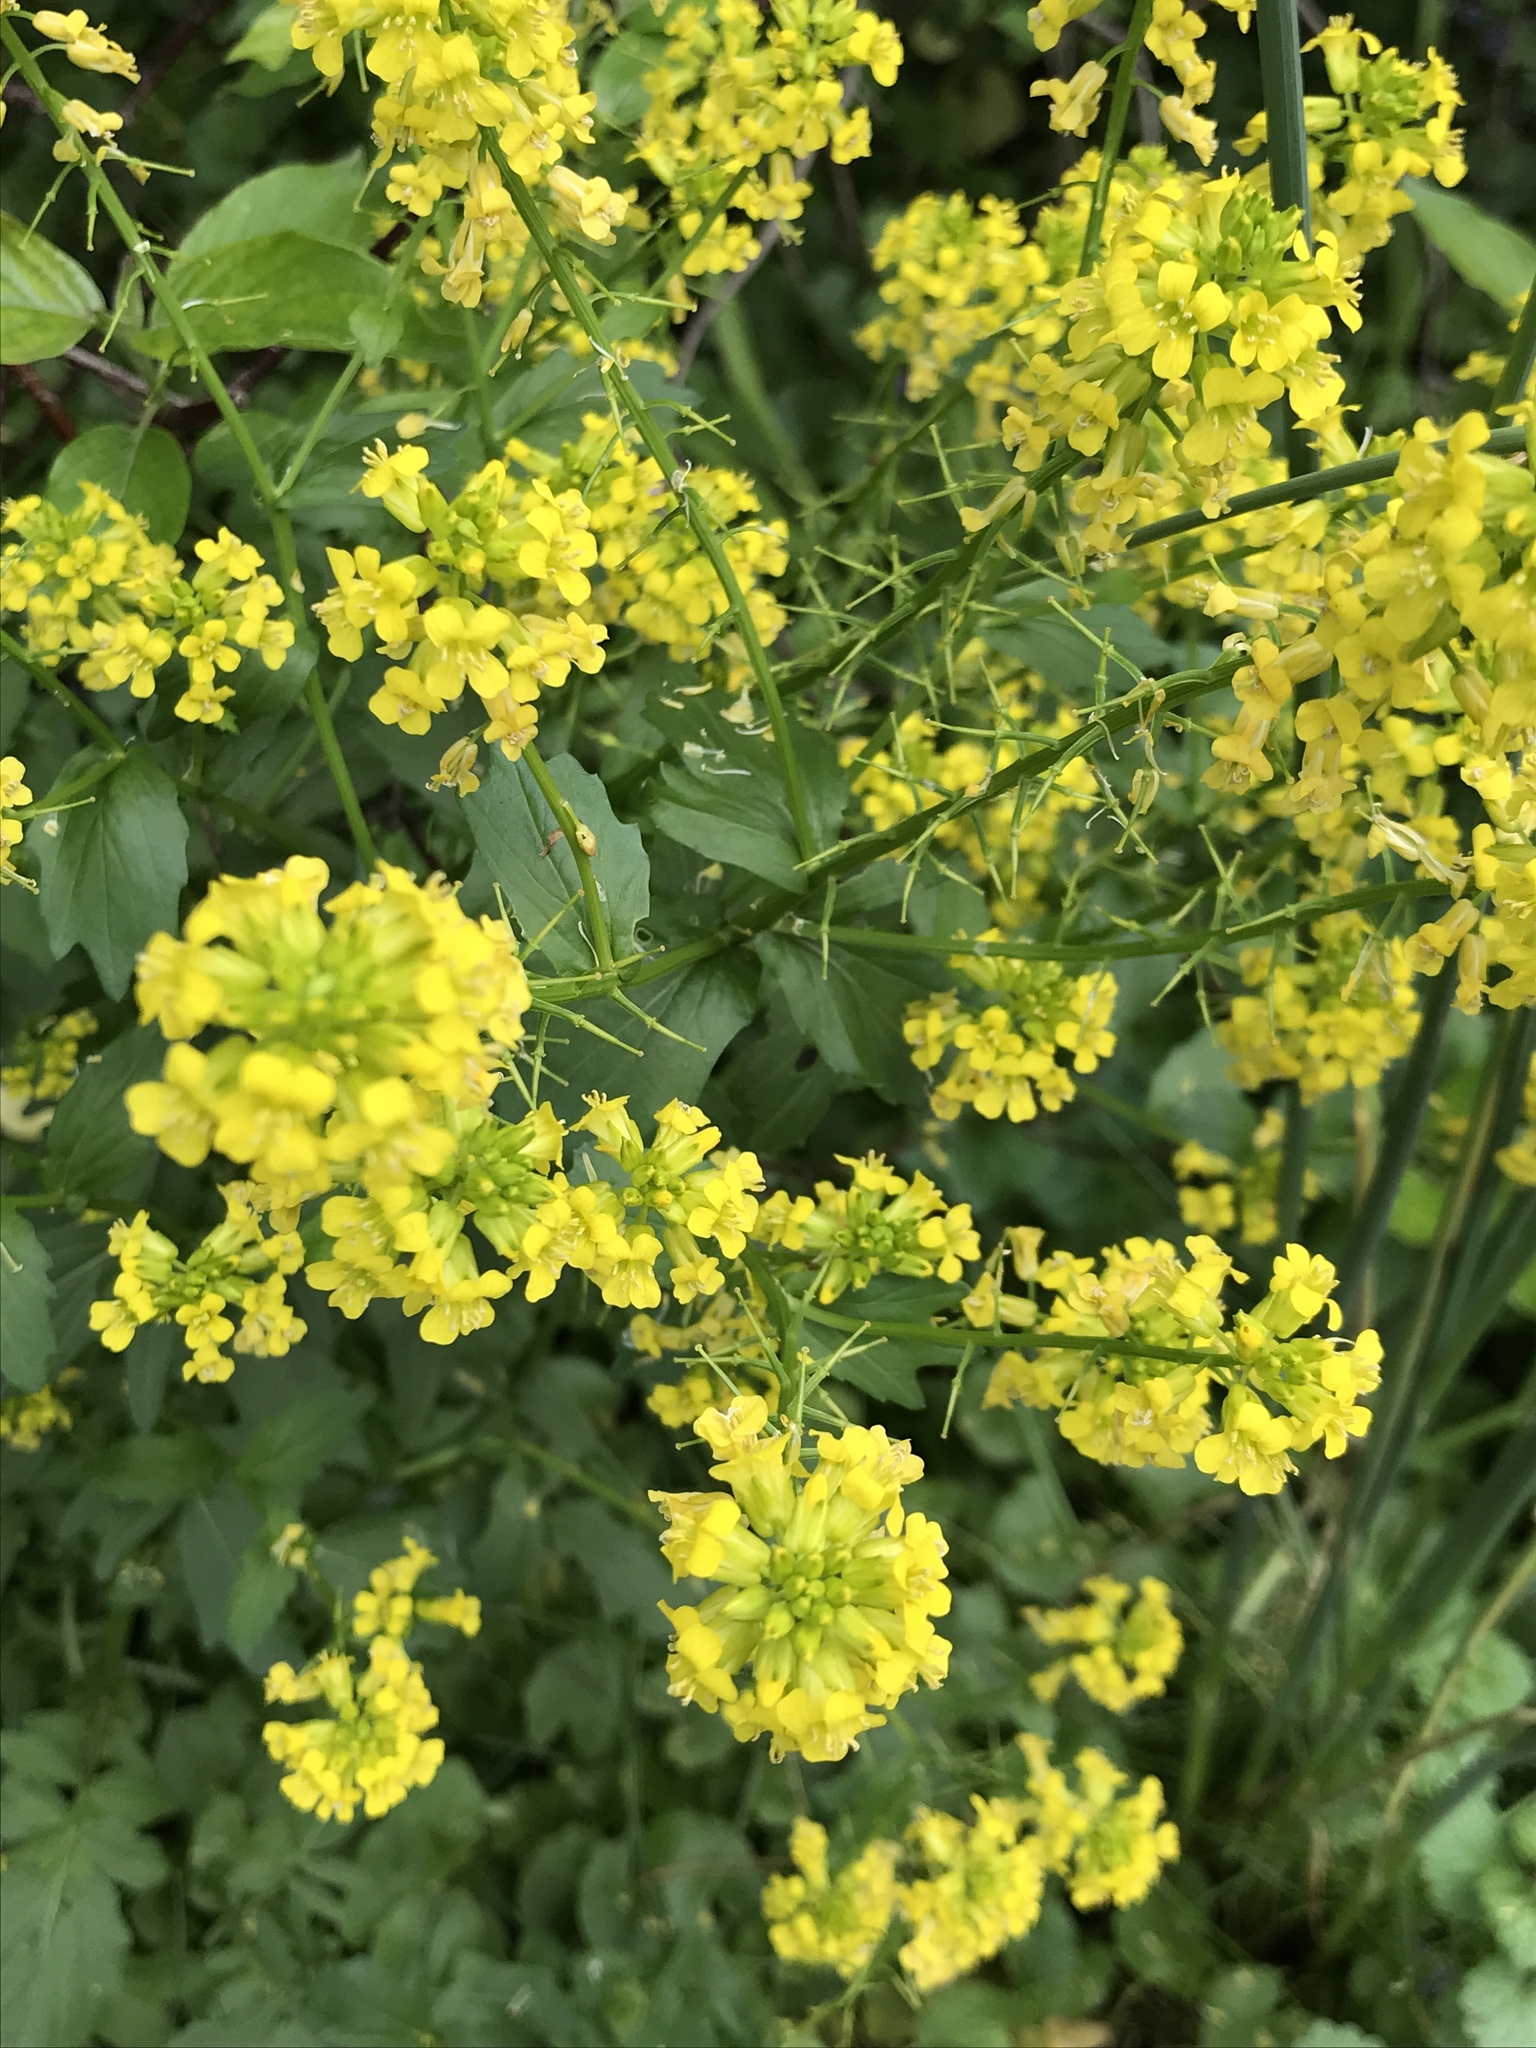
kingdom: Plantae
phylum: Tracheophyta
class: Magnoliopsida
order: Brassicales
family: Brassicaceae
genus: Barbarea
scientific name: Barbarea vulgaris
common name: Cressy-greens
